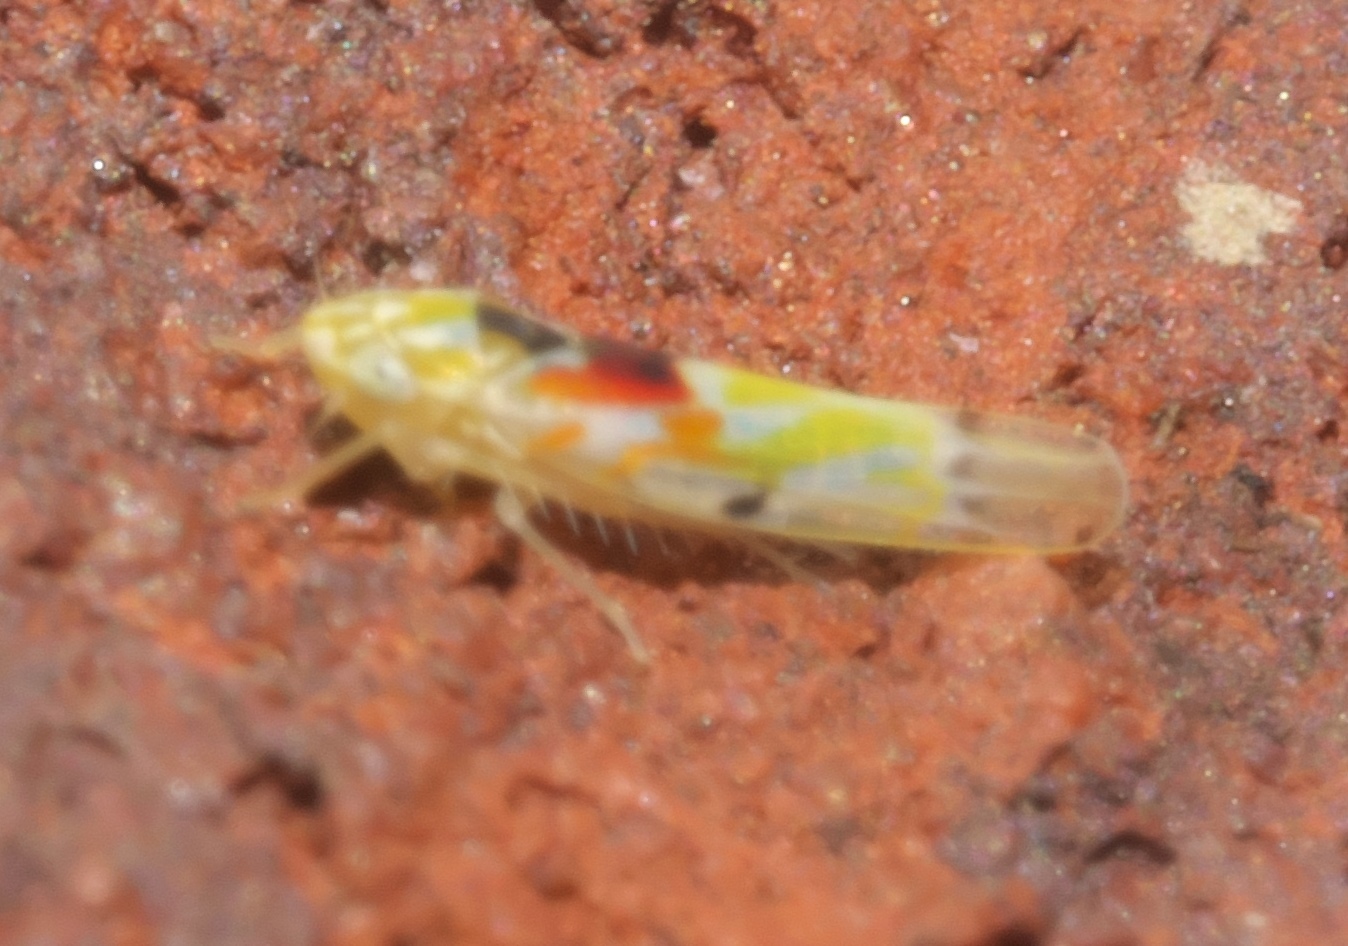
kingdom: Animalia
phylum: Arthropoda
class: Insecta
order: Hemiptera
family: Cicadellidae
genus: Erythroneura
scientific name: Erythroneura octonotata
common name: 8-spotted leafhopper
